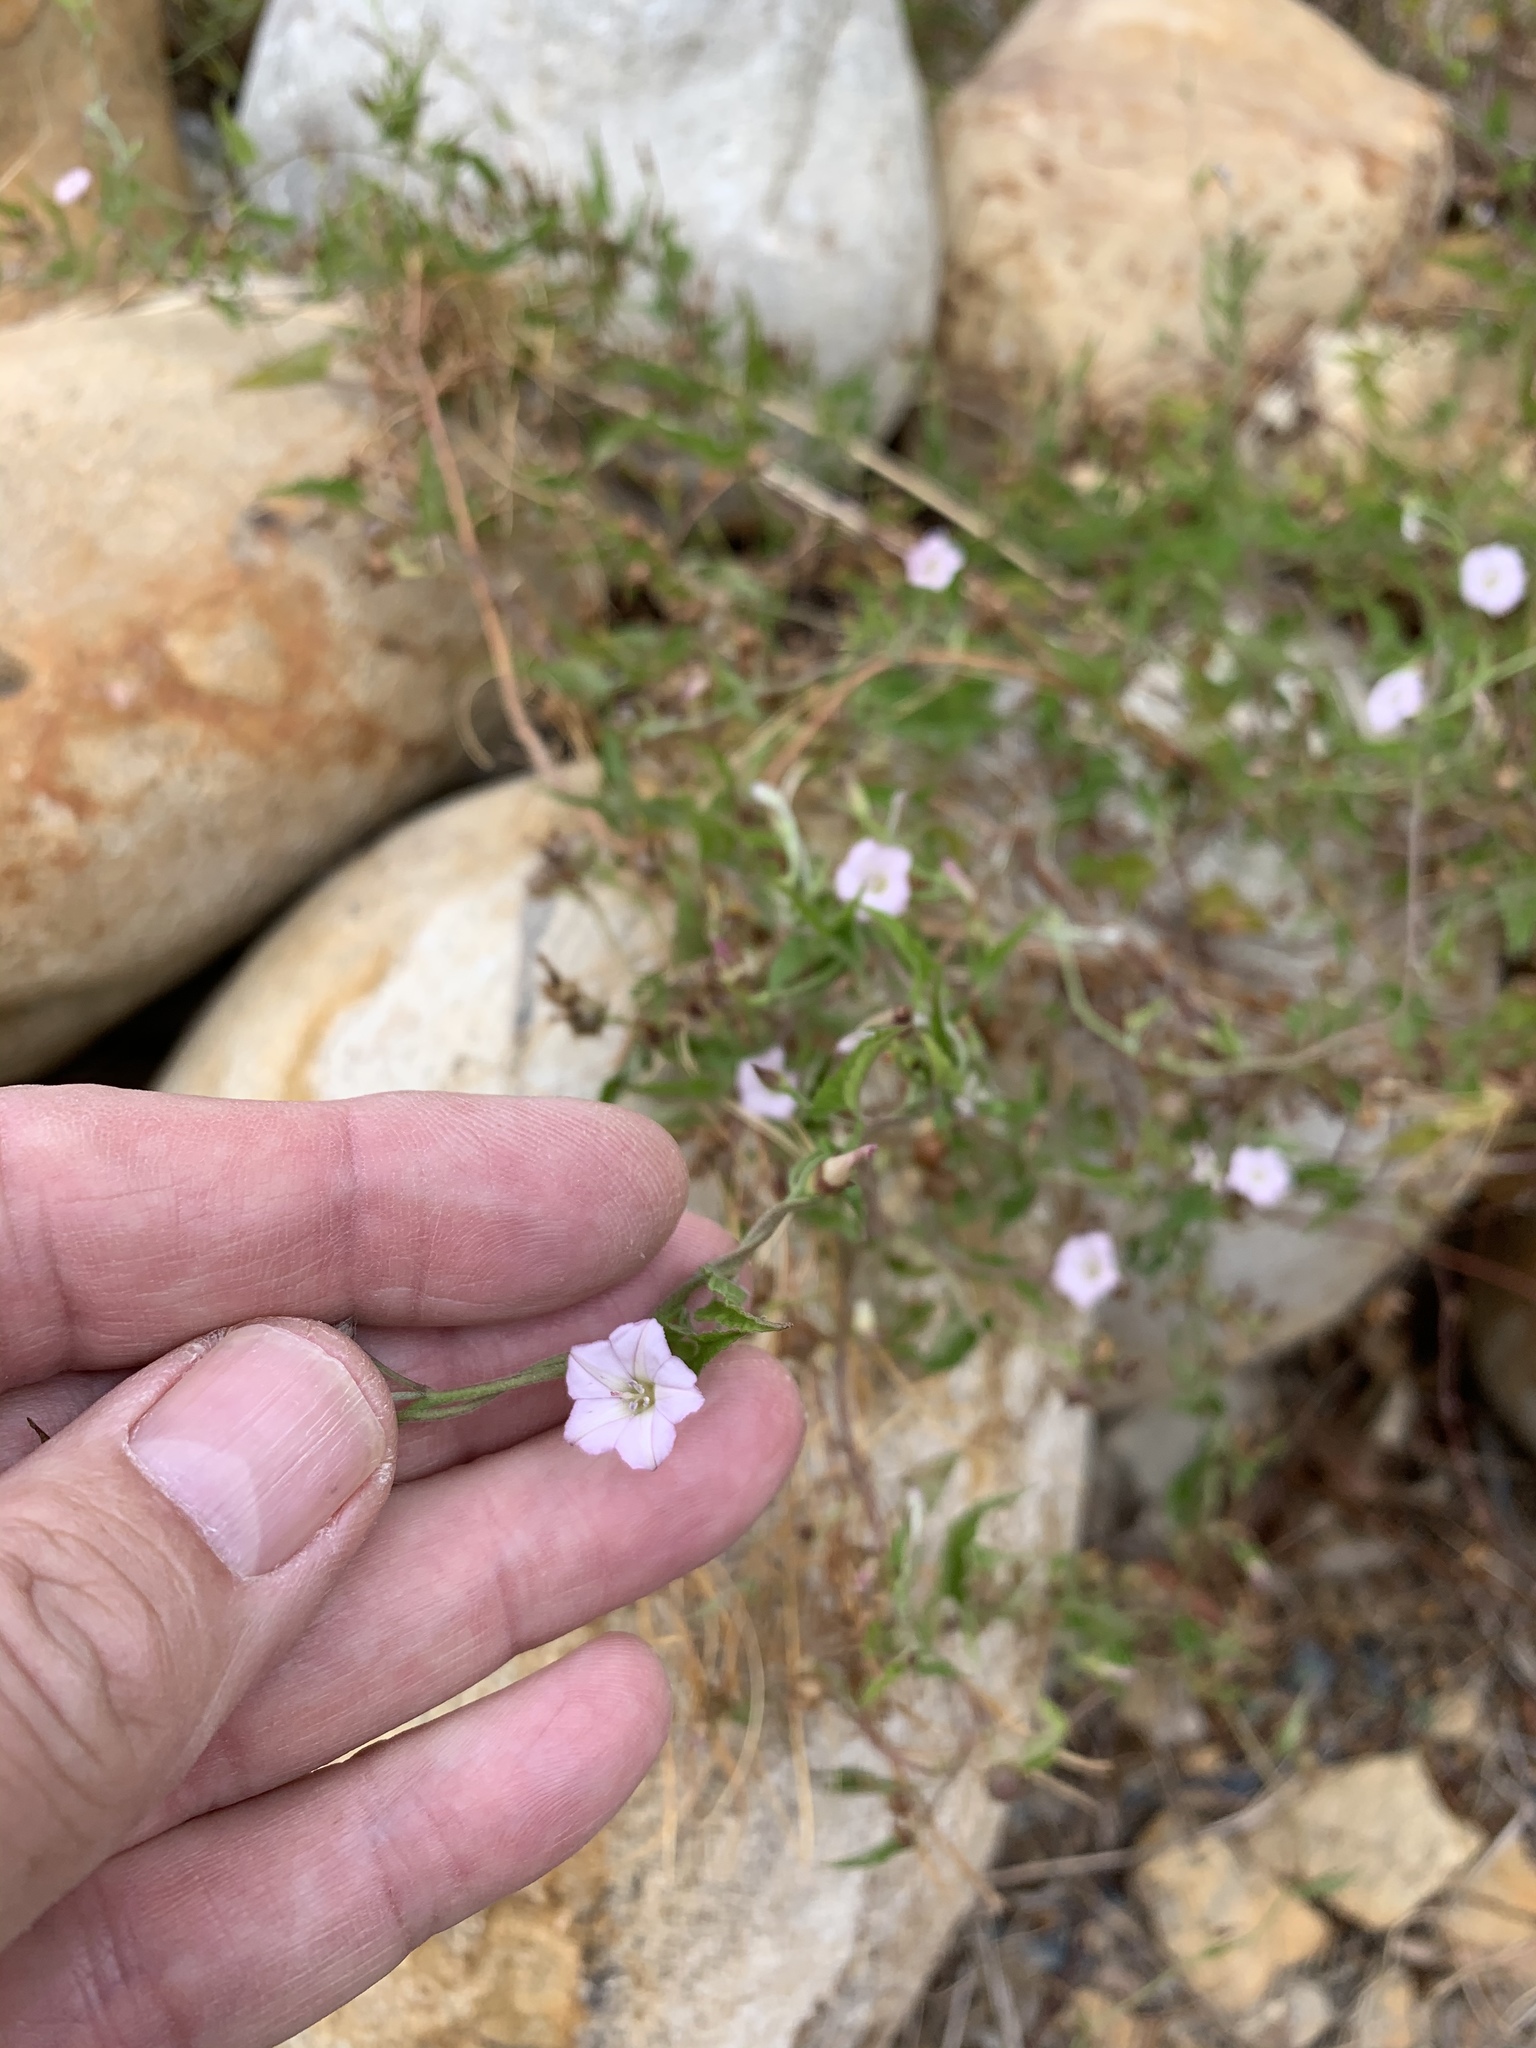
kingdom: Plantae
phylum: Tracheophyta
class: Magnoliopsida
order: Solanales
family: Convolvulaceae
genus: Convolvulus
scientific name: Convolvulus farinosus
